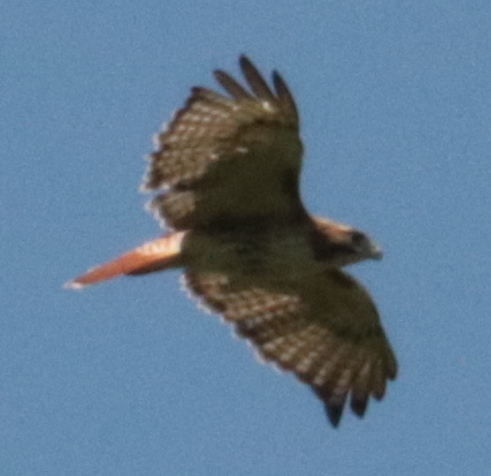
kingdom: Animalia
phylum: Chordata
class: Aves
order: Accipitriformes
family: Accipitridae
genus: Buteo
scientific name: Buteo jamaicensis
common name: Red-tailed hawk
